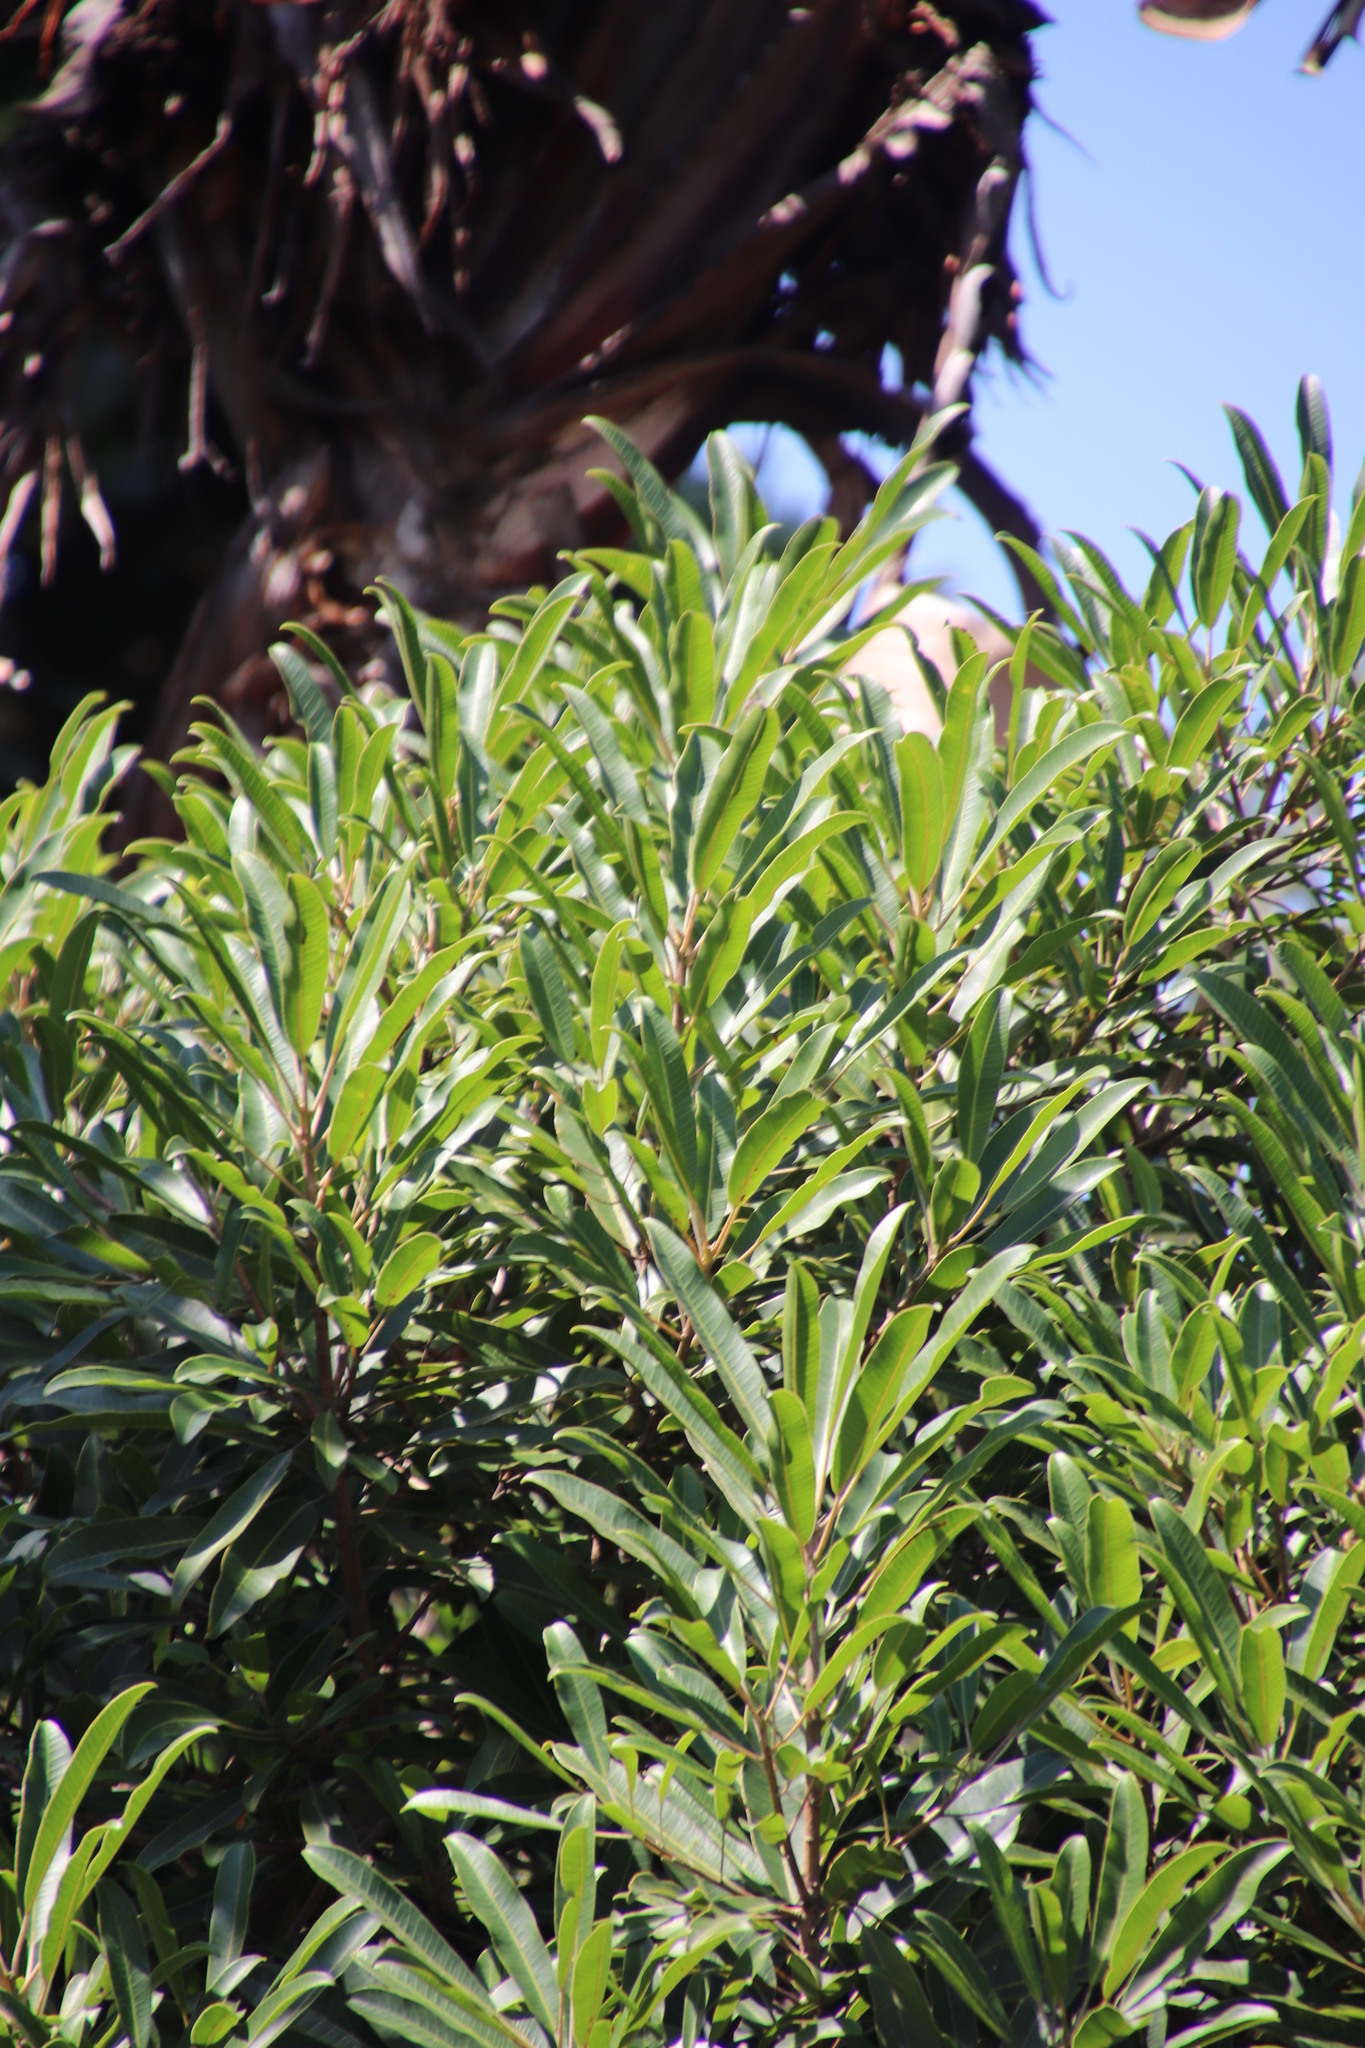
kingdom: Plantae
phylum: Tracheophyta
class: Magnoliopsida
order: Myrtales
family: Myrtaceae
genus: Syzygium
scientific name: Syzygium pondoense
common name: Pondo waterberry
